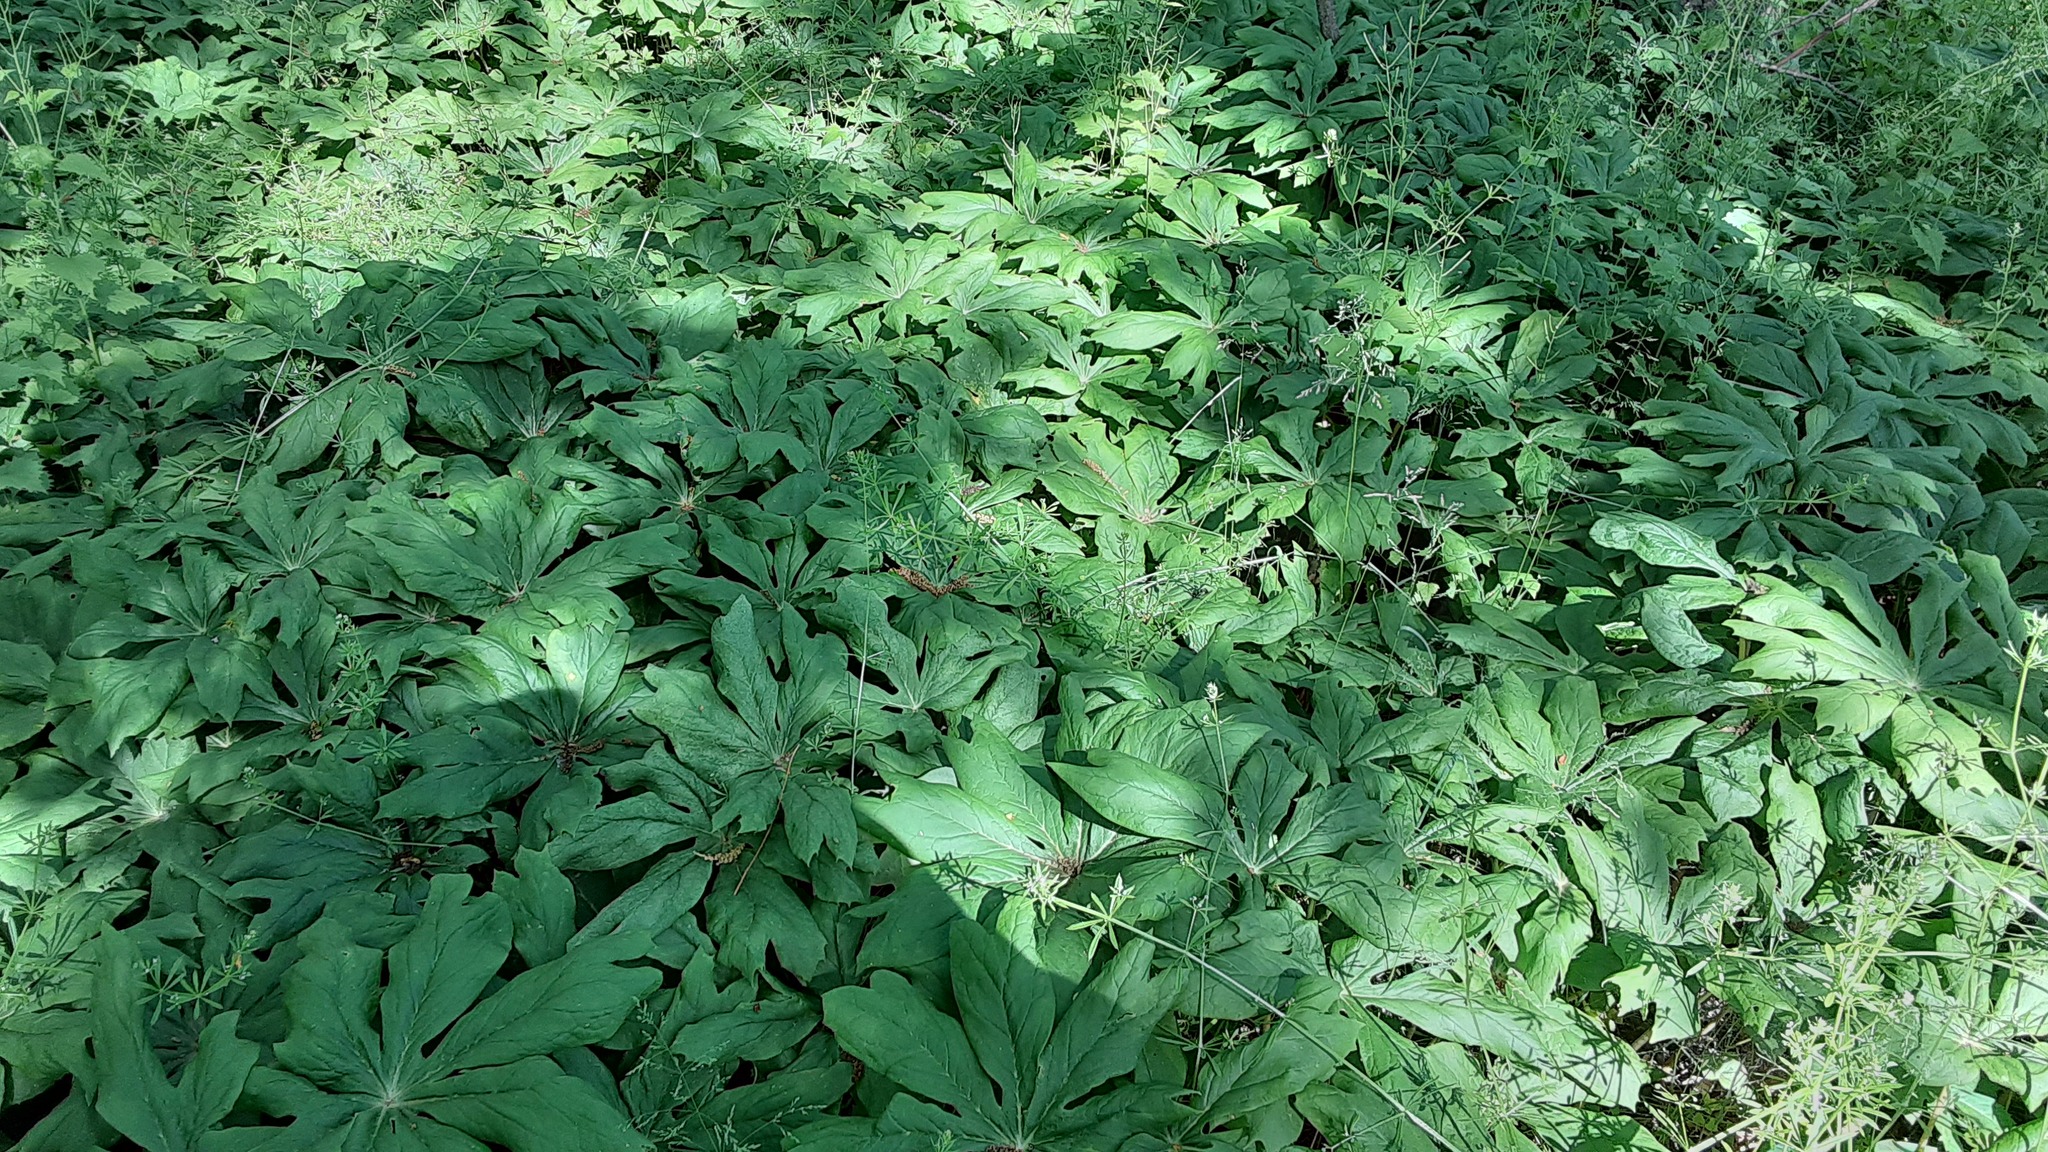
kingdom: Plantae
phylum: Tracheophyta
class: Magnoliopsida
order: Ranunculales
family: Berberidaceae
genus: Podophyllum
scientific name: Podophyllum peltatum
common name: Wild mandrake
